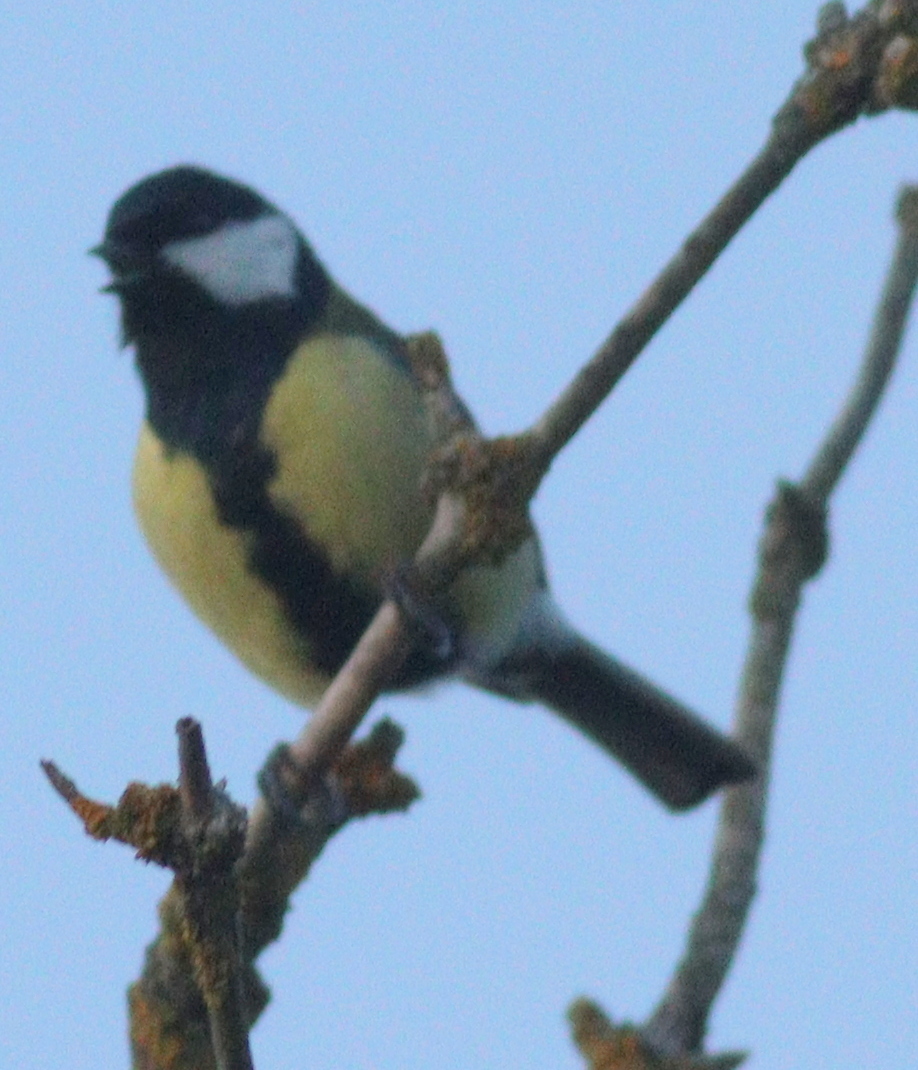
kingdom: Animalia
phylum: Chordata
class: Aves
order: Passeriformes
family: Paridae
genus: Parus
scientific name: Parus major
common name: Great tit
